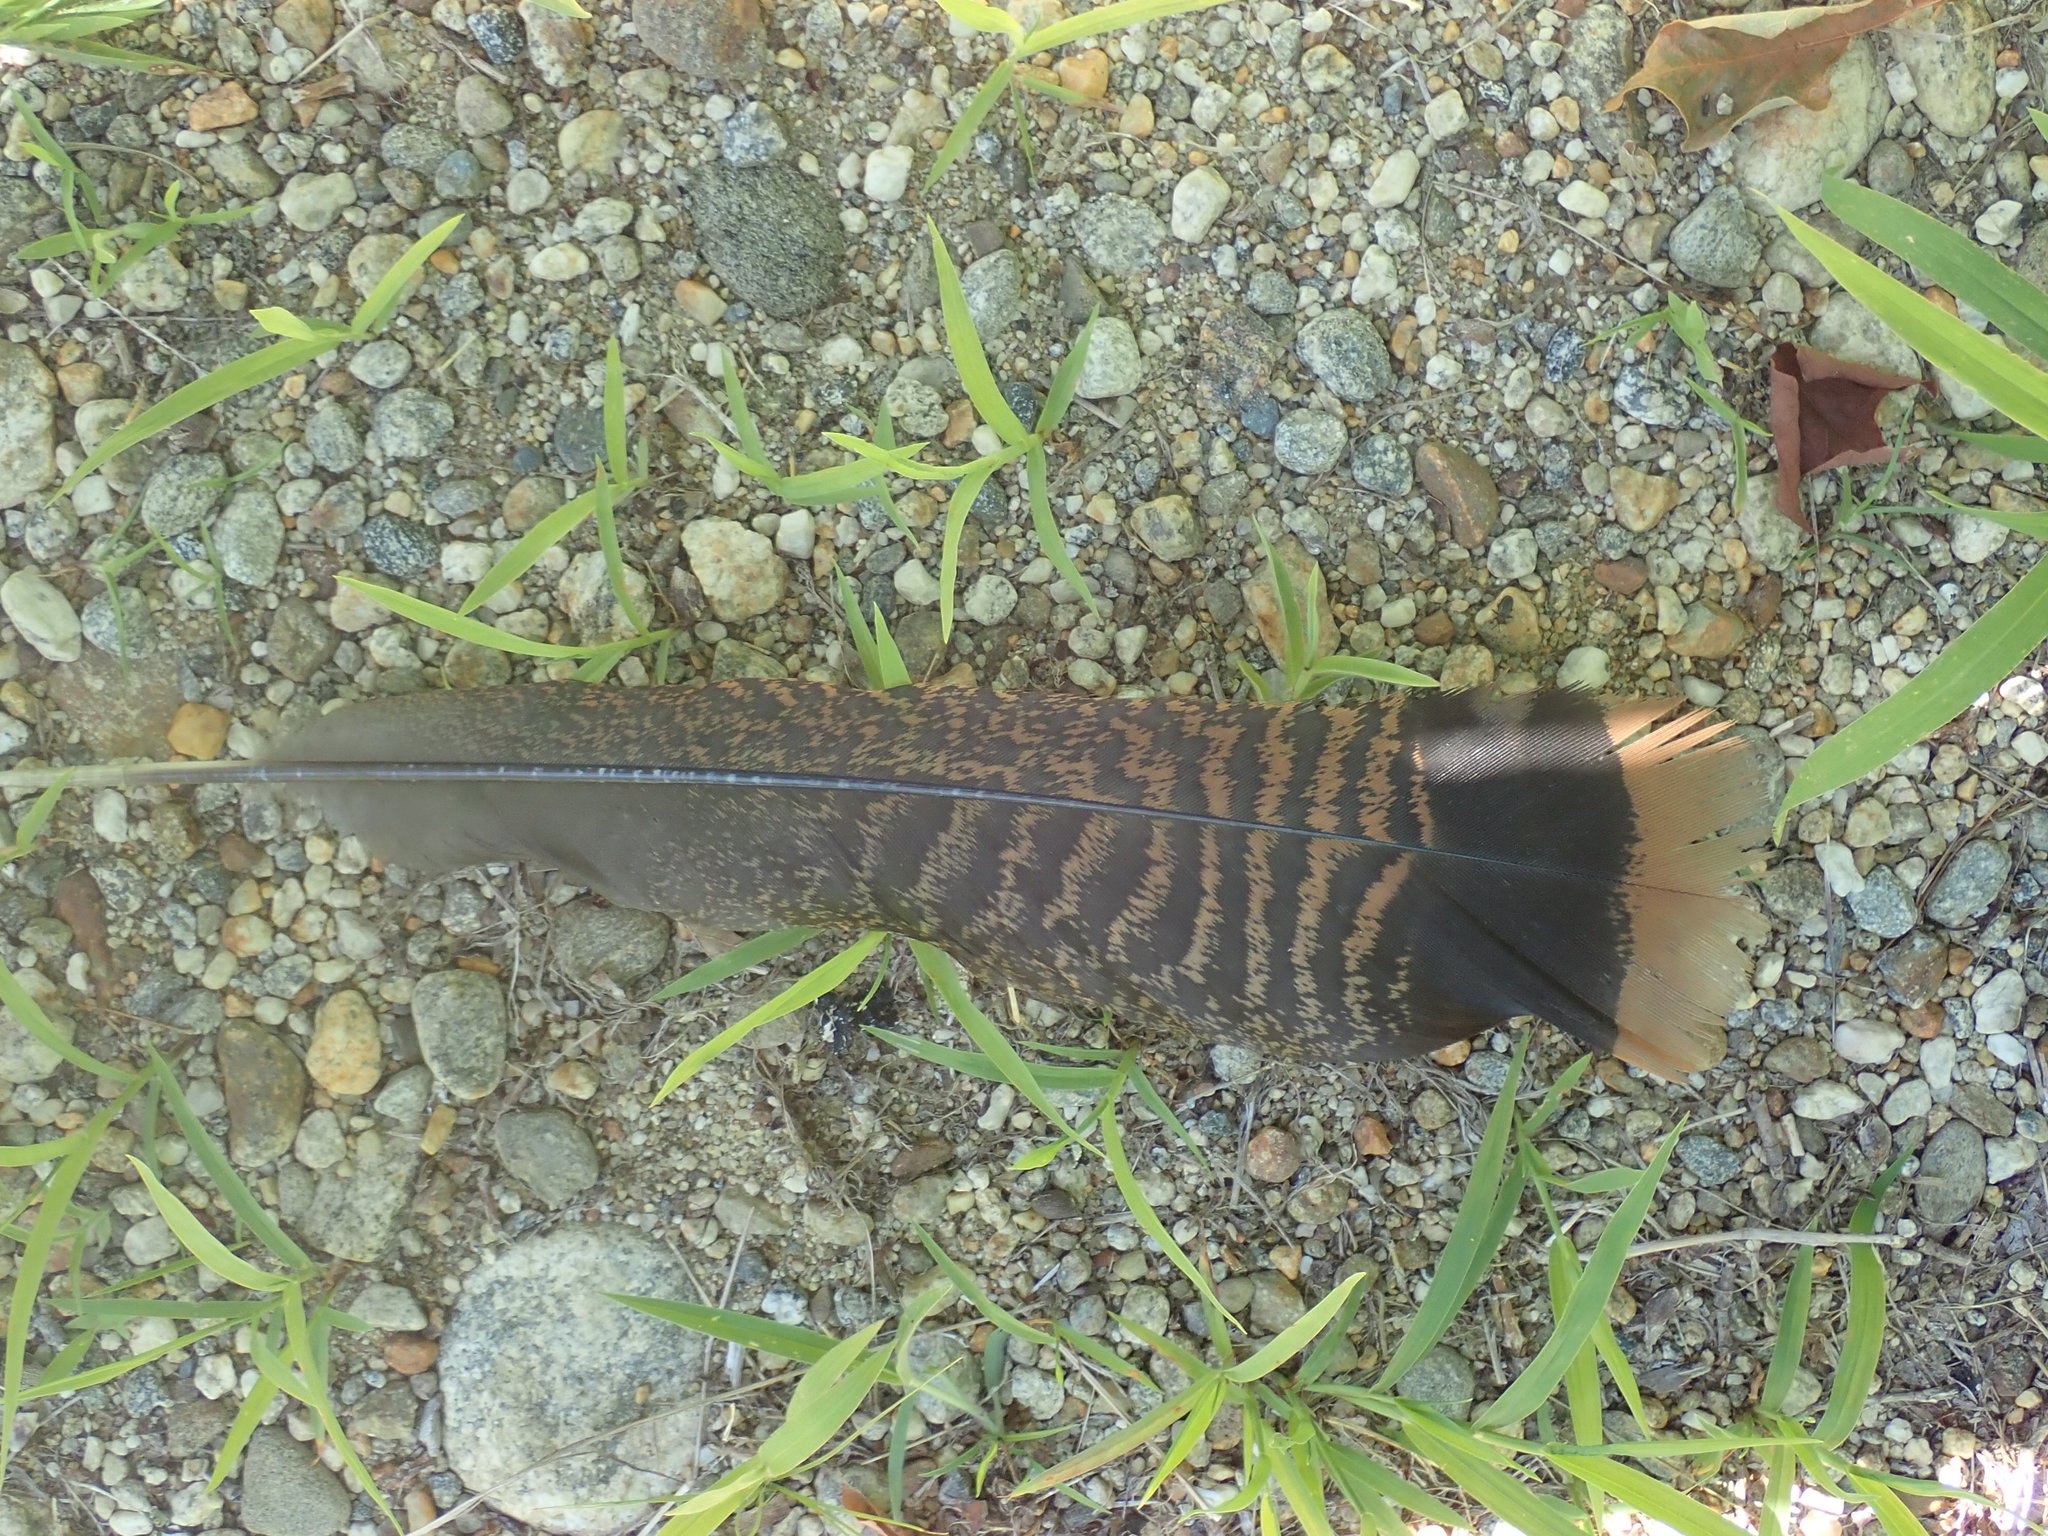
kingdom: Animalia
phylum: Chordata
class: Aves
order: Galliformes
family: Phasianidae
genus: Meleagris
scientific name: Meleagris gallopavo
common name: Wild turkey
